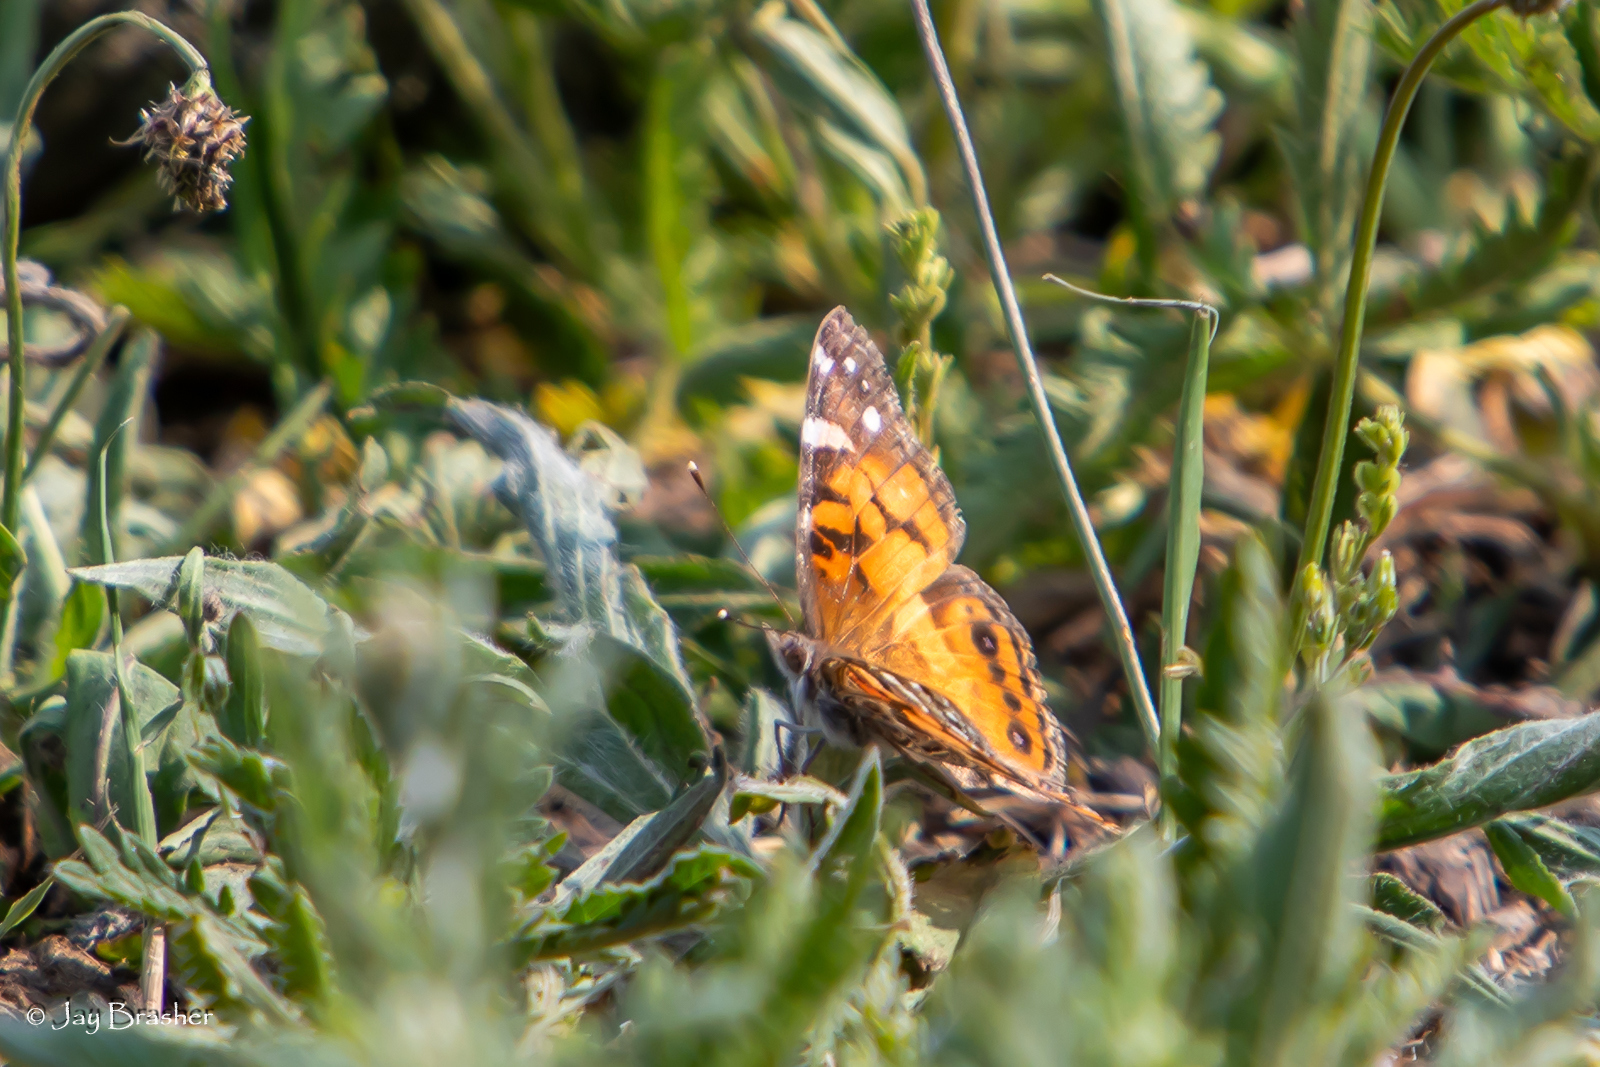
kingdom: Animalia
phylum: Arthropoda
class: Insecta
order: Lepidoptera
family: Nymphalidae
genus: Vanessa
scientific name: Vanessa virginiensis
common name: American lady
